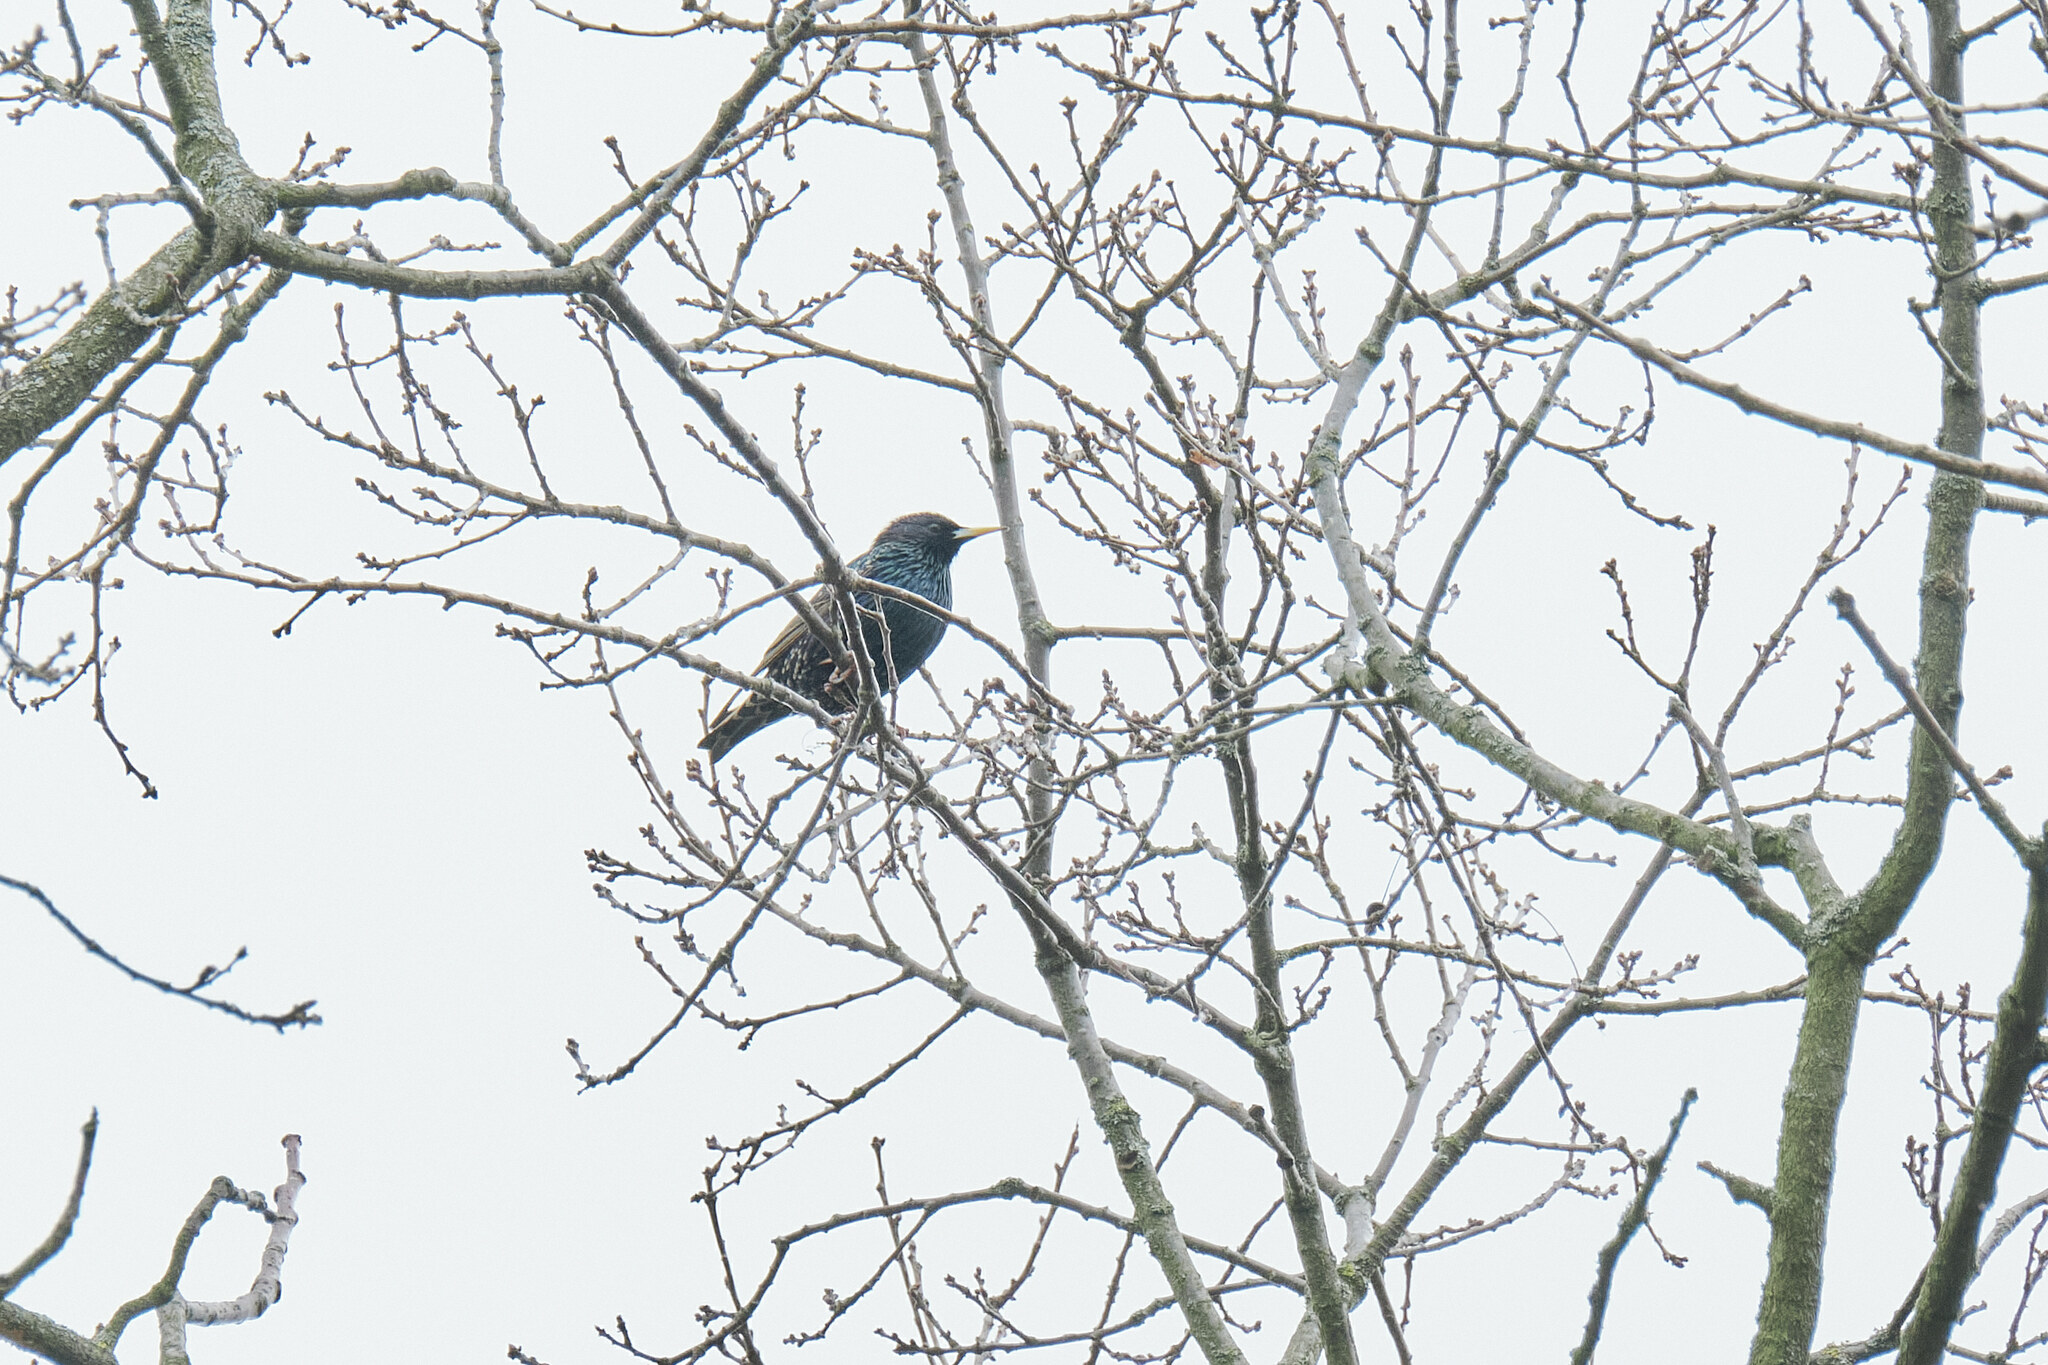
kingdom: Animalia
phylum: Chordata
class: Aves
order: Passeriformes
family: Sturnidae
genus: Sturnus
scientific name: Sturnus vulgaris
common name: Common starling
